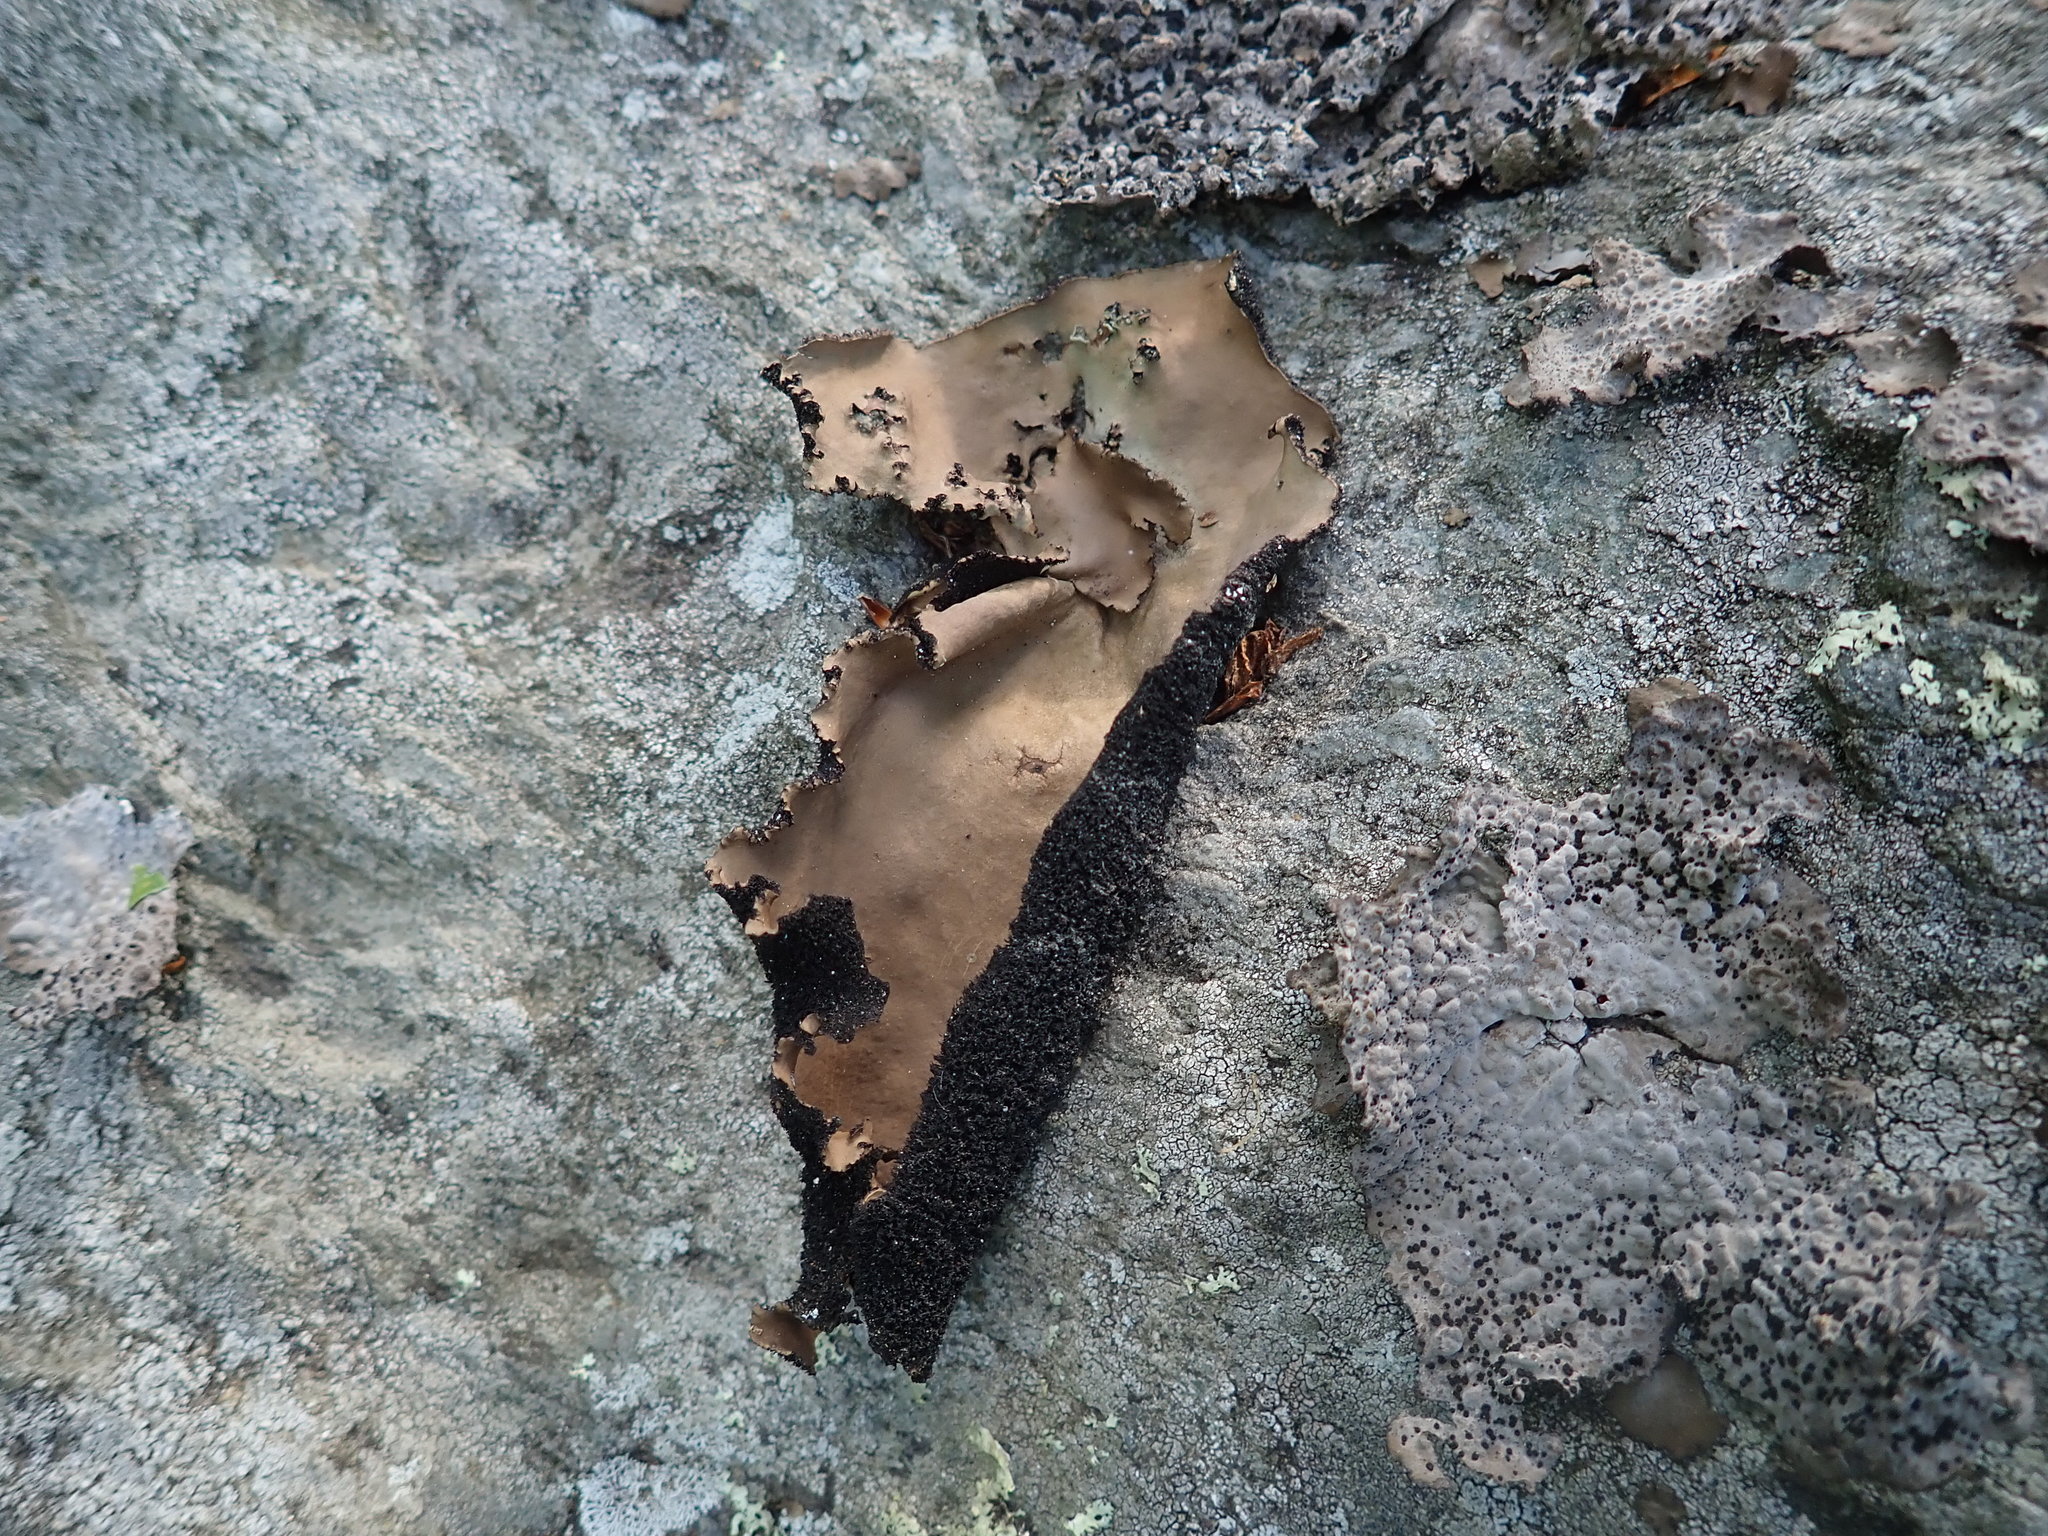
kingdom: Fungi
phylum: Ascomycota
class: Lecanoromycetes
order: Umbilicariales
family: Umbilicariaceae
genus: Umbilicaria
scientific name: Umbilicaria mammulata
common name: Smooth rock tripe
